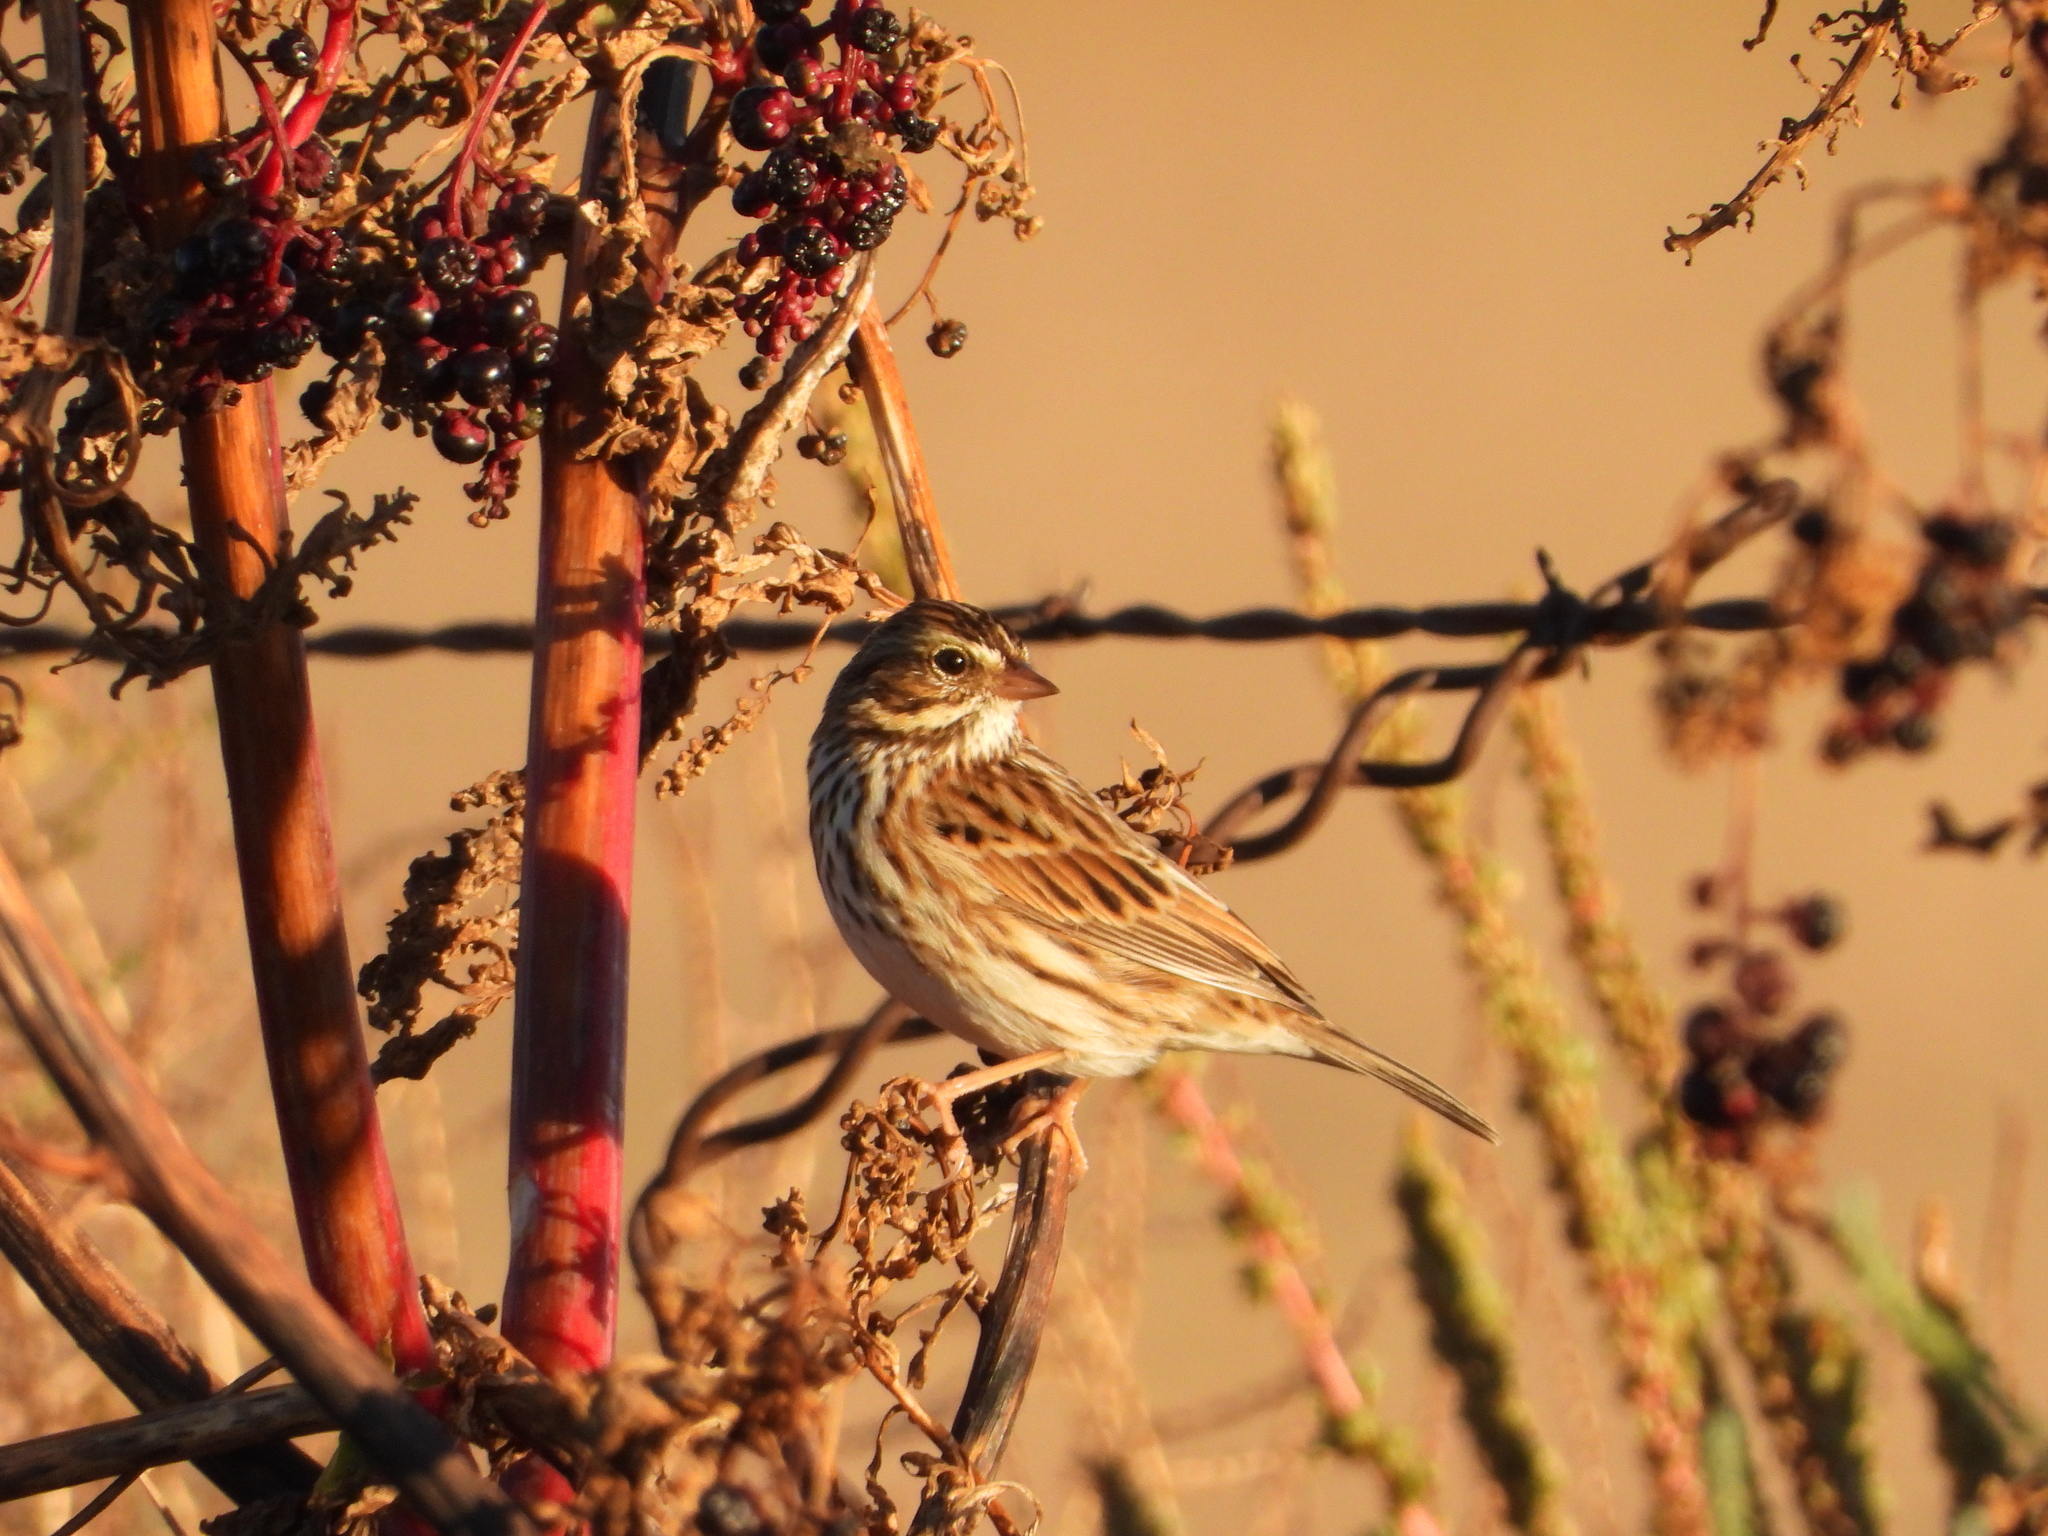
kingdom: Animalia
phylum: Chordata
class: Aves
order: Passeriformes
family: Passerellidae
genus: Passerculus
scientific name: Passerculus sandwichensis
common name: Savannah sparrow
